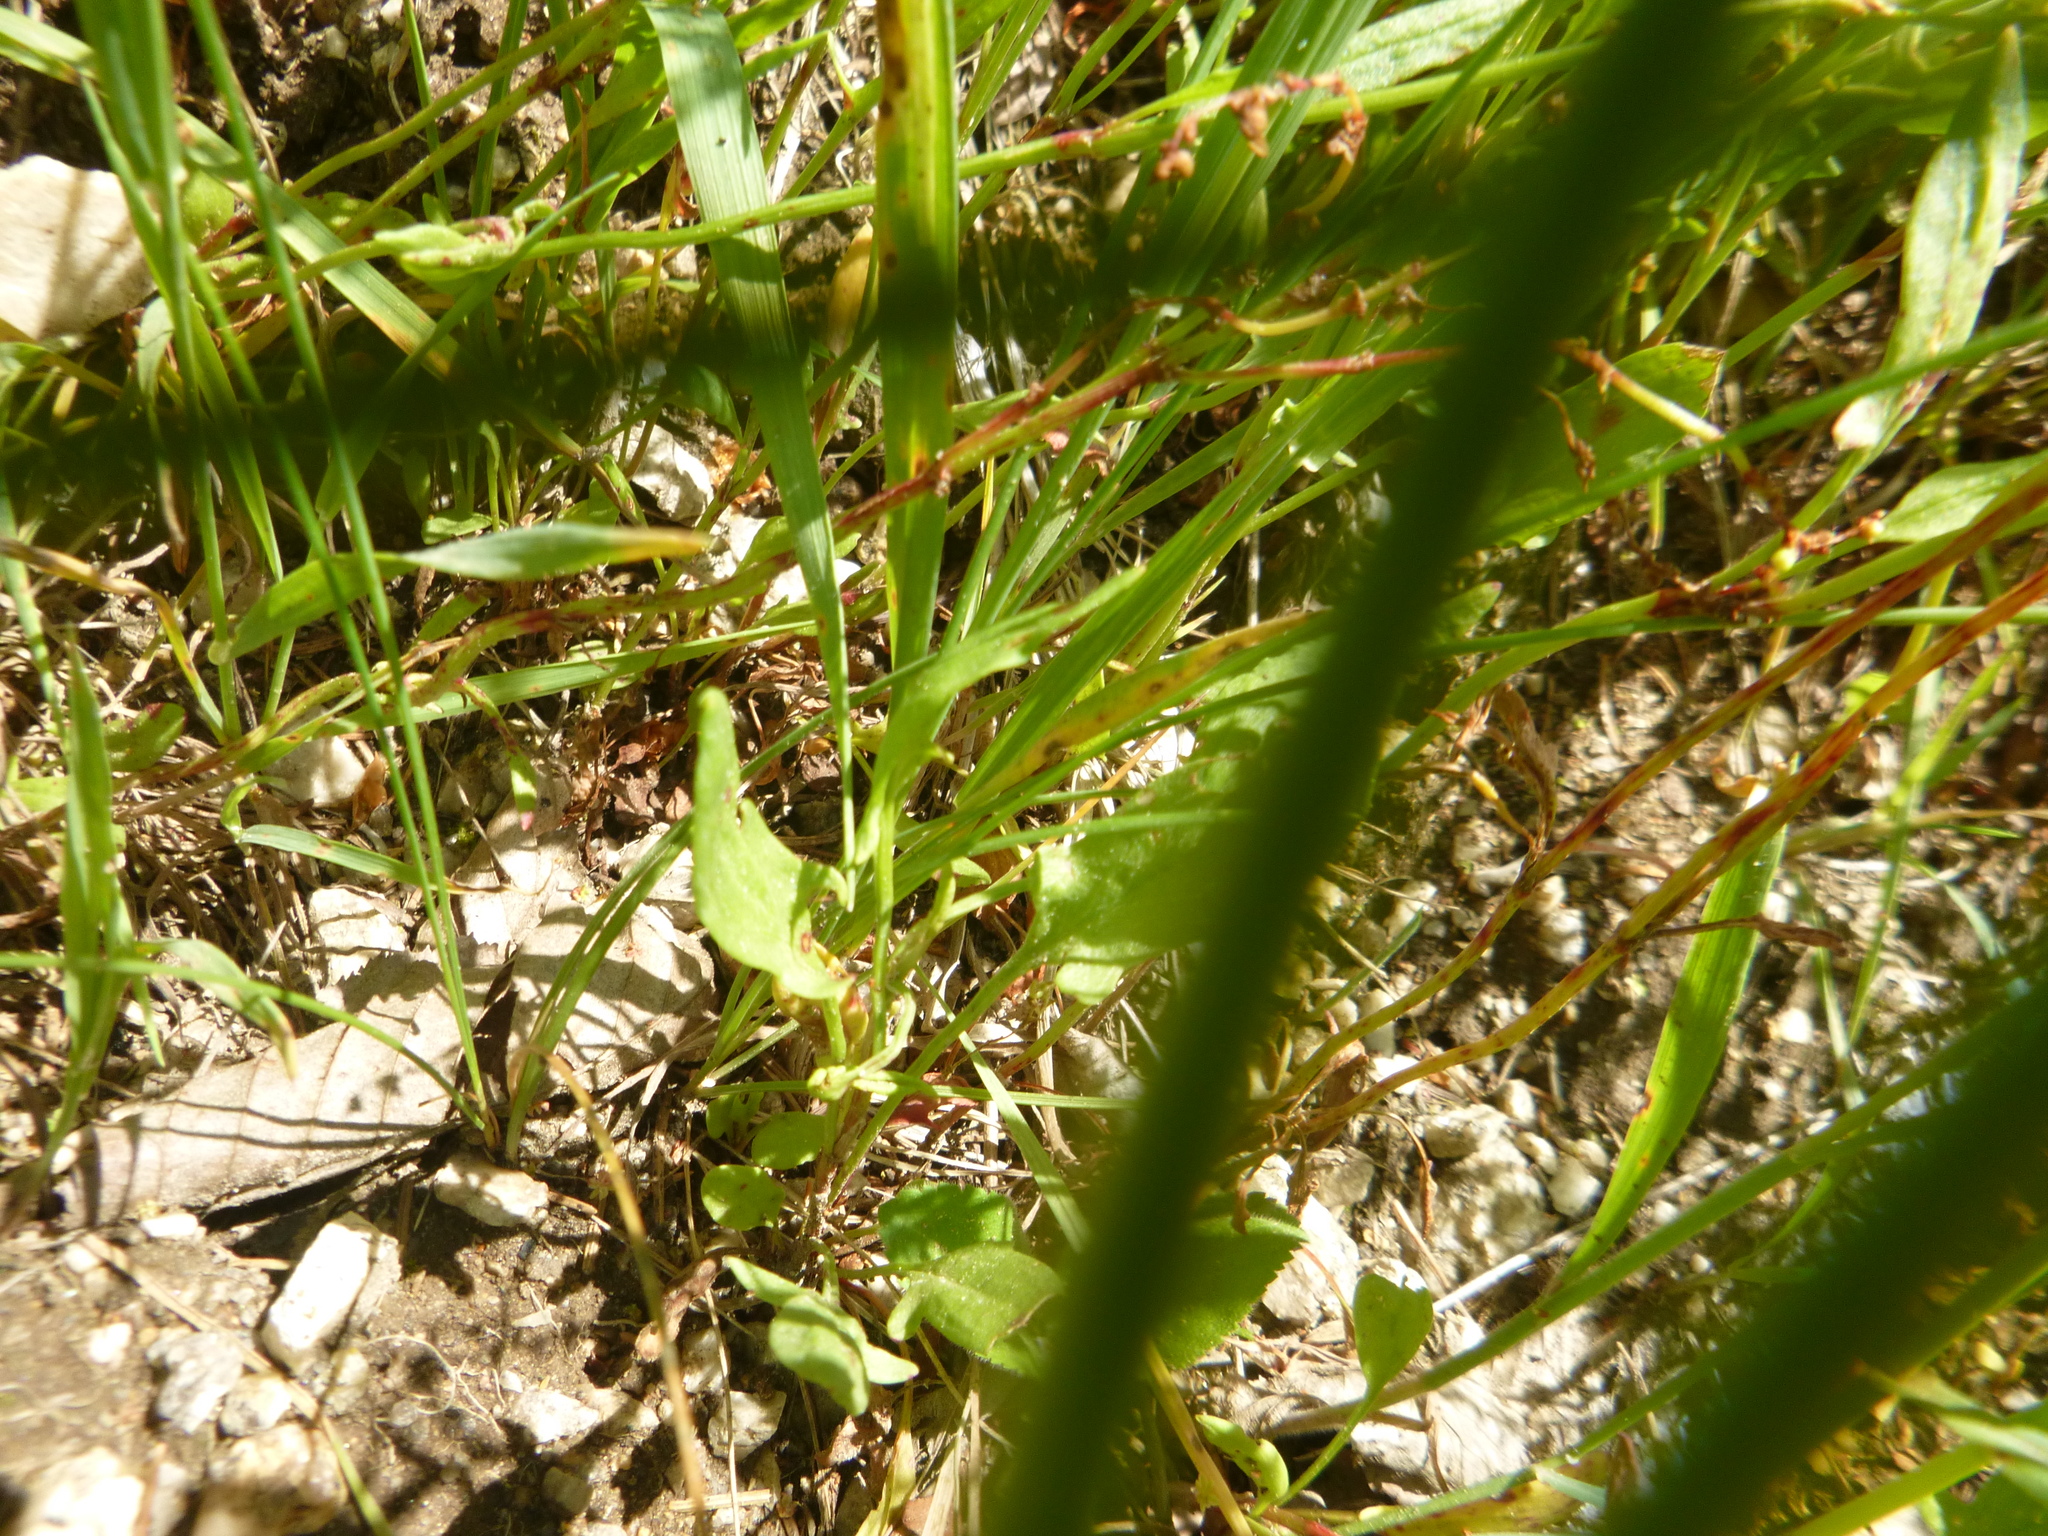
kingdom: Plantae
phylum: Tracheophyta
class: Magnoliopsida
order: Caryophyllales
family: Polygonaceae
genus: Rumex
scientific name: Rumex acetosella
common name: Common sheep sorrel
